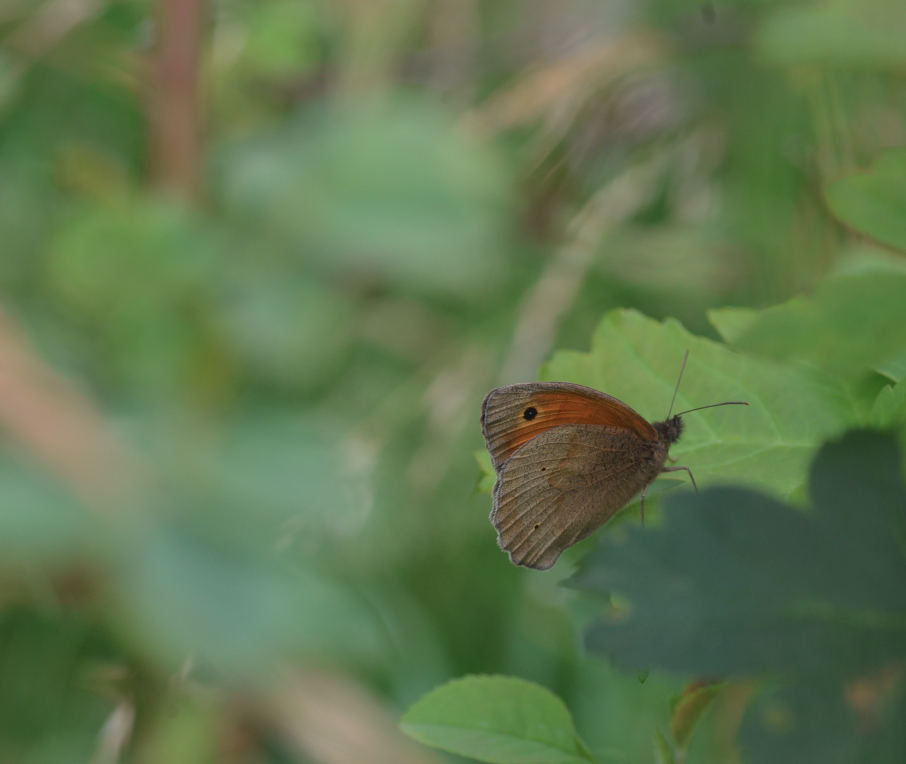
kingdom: Animalia
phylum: Arthropoda
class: Insecta
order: Lepidoptera
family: Nymphalidae
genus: Maniola
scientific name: Maniola jurtina
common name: Meadow brown
